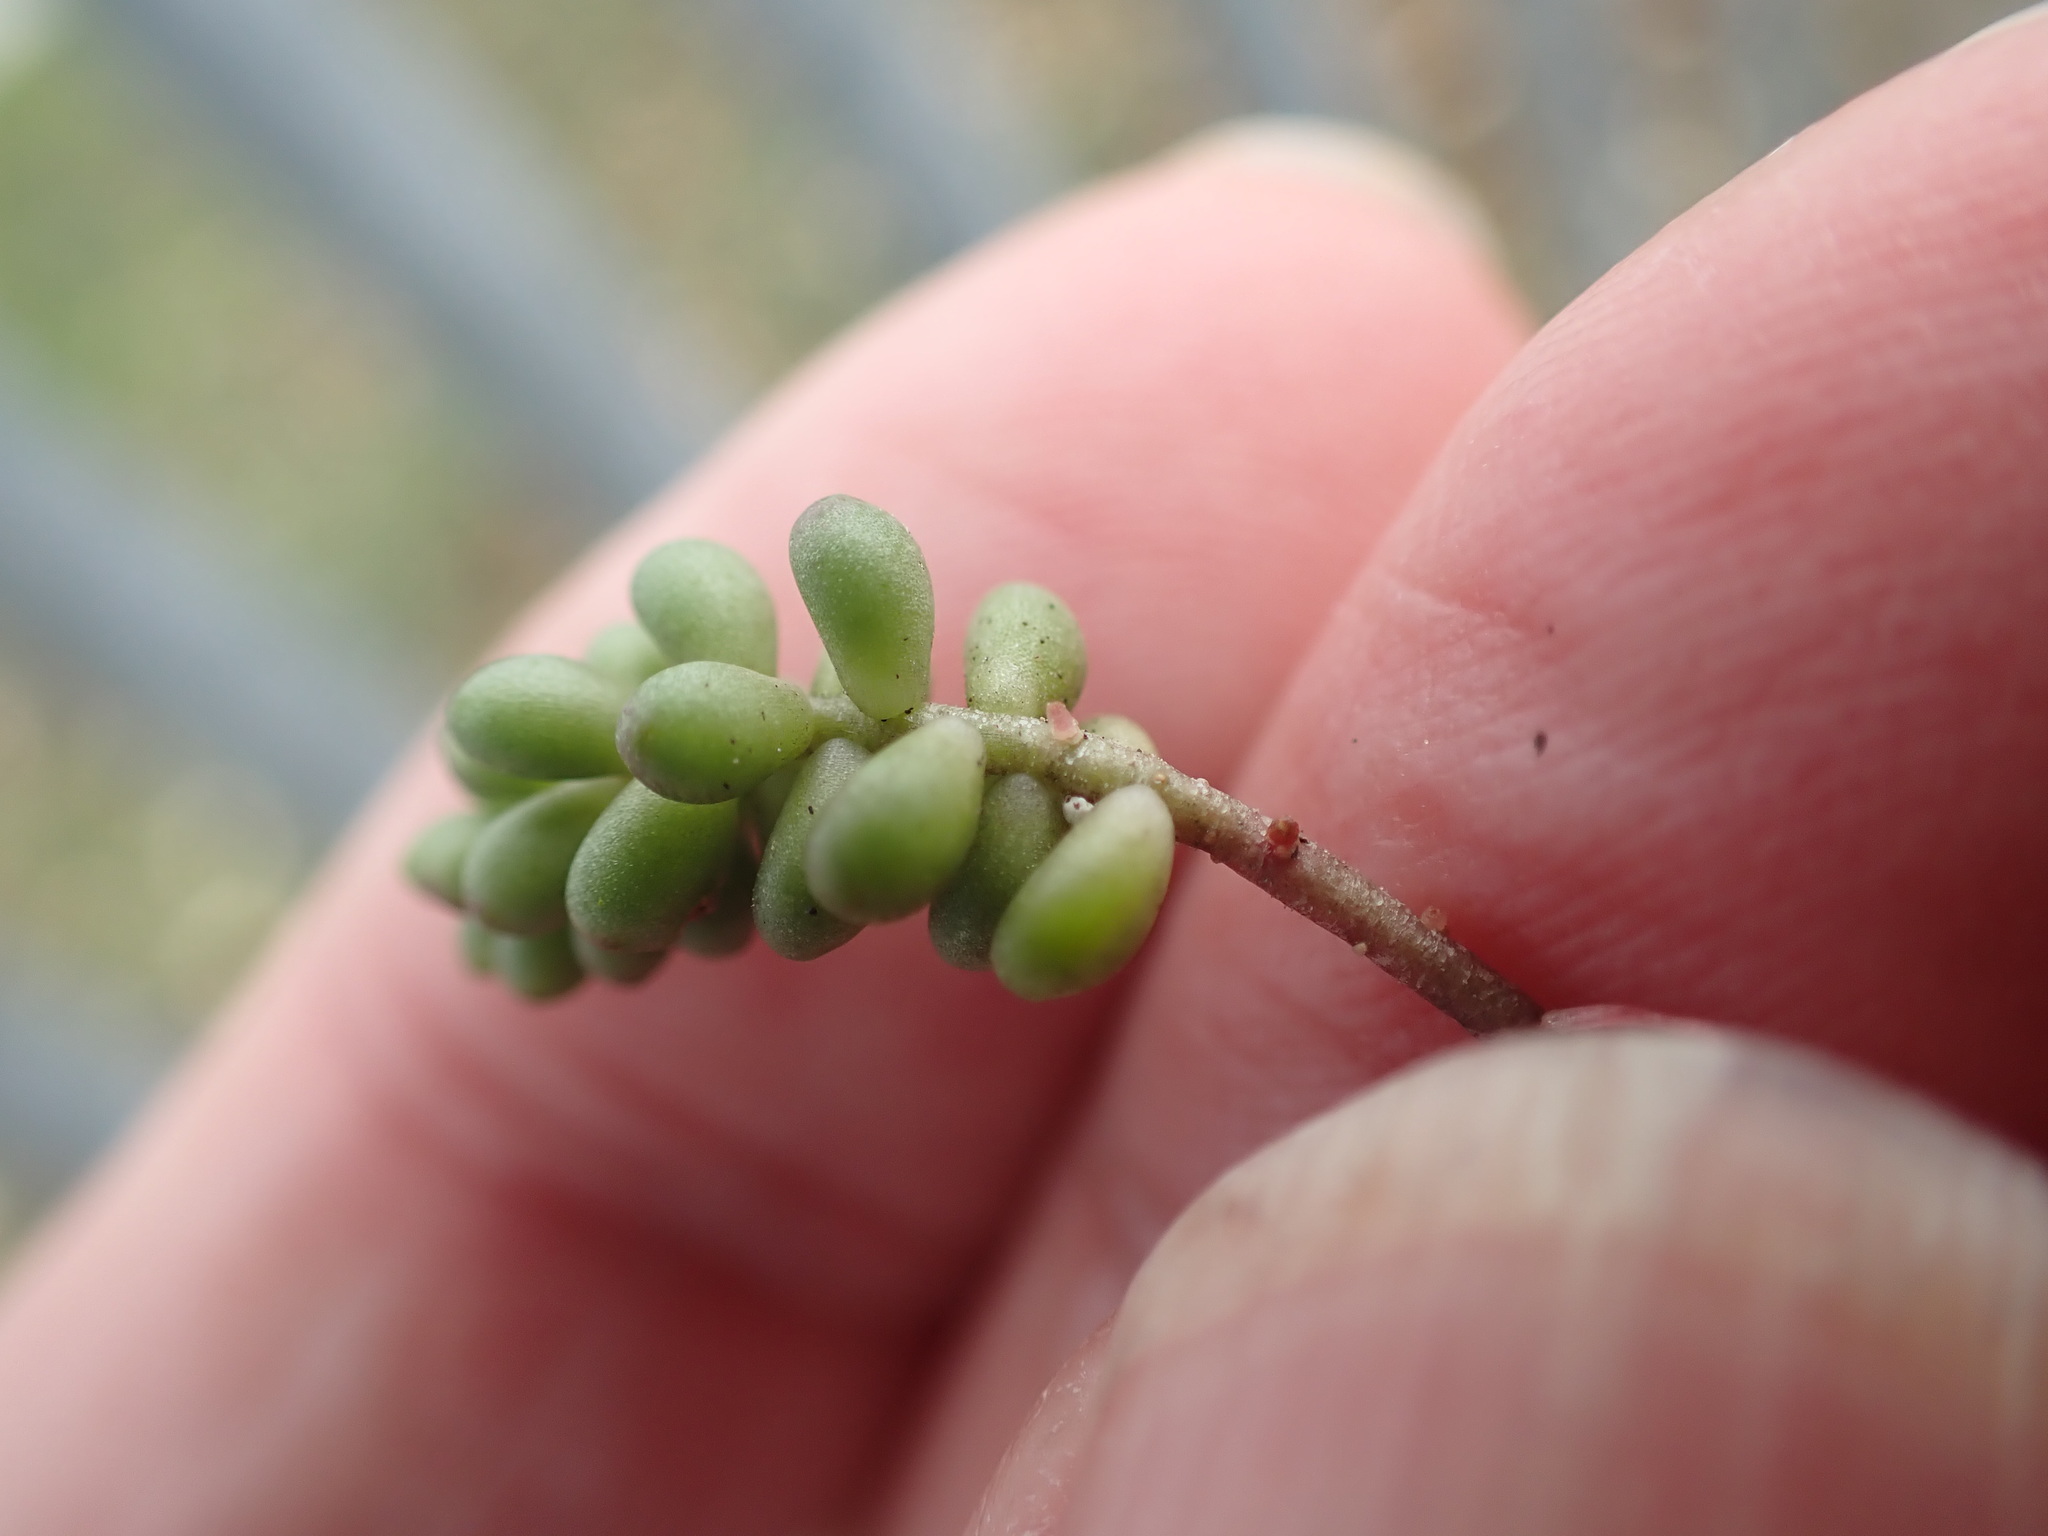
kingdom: Plantae
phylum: Tracheophyta
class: Magnoliopsida
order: Saxifragales
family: Crassulaceae
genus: Sedum
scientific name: Sedum album
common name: White stonecrop
